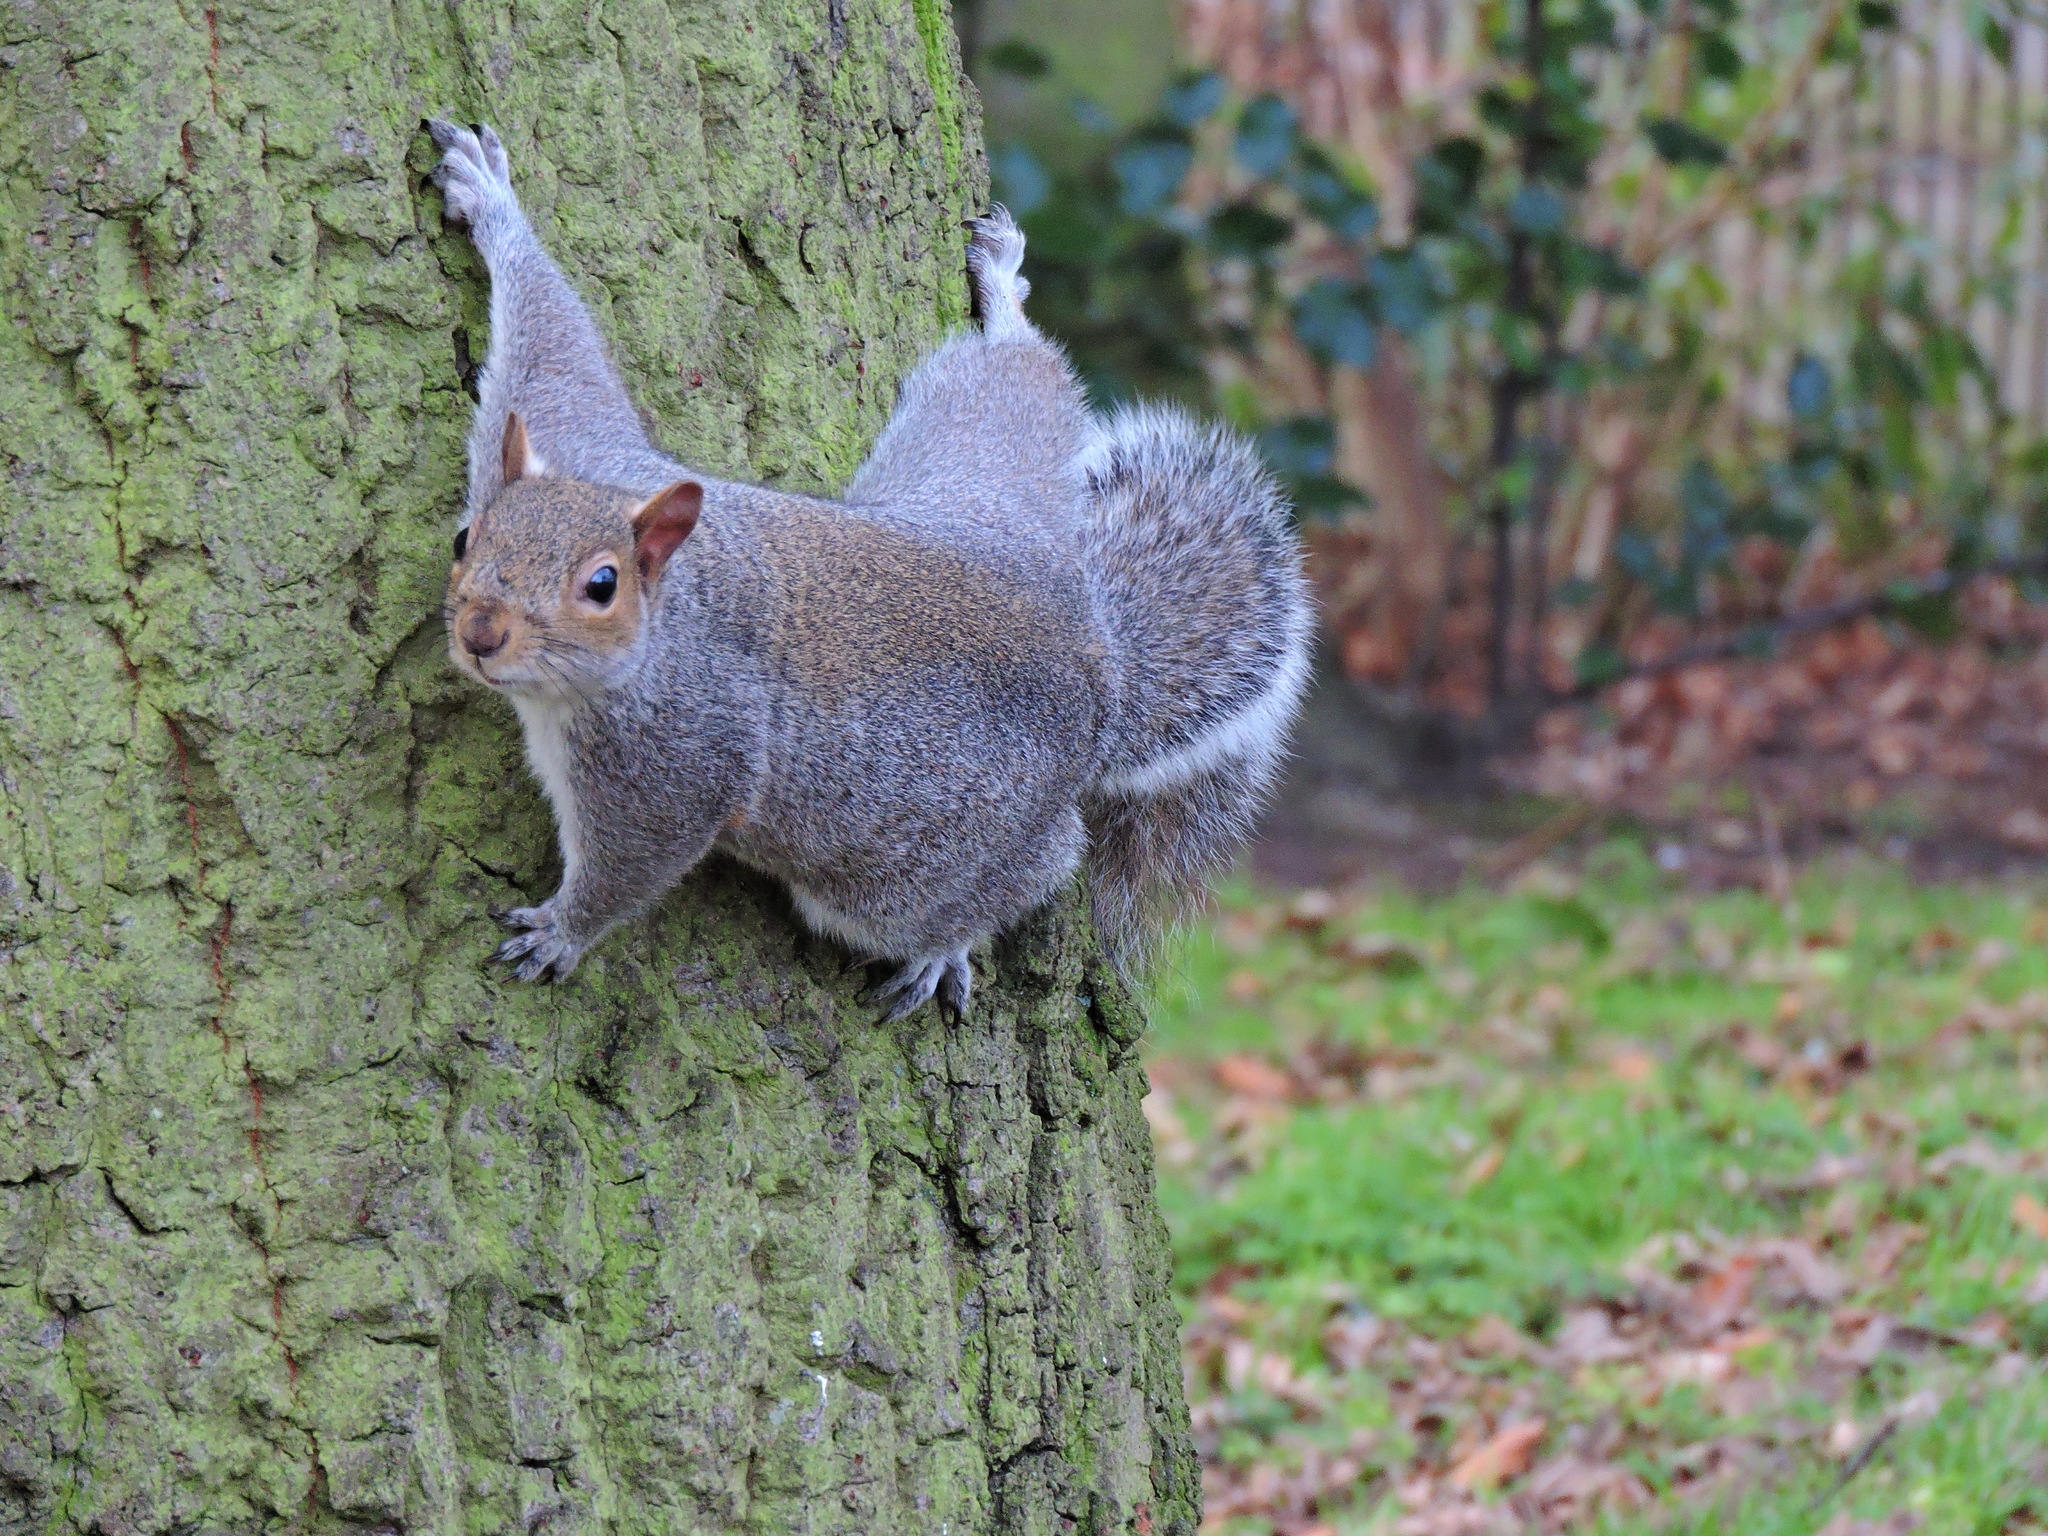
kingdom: Animalia
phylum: Chordata
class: Mammalia
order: Rodentia
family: Sciuridae
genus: Sciurus
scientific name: Sciurus carolinensis
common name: Eastern gray squirrel
